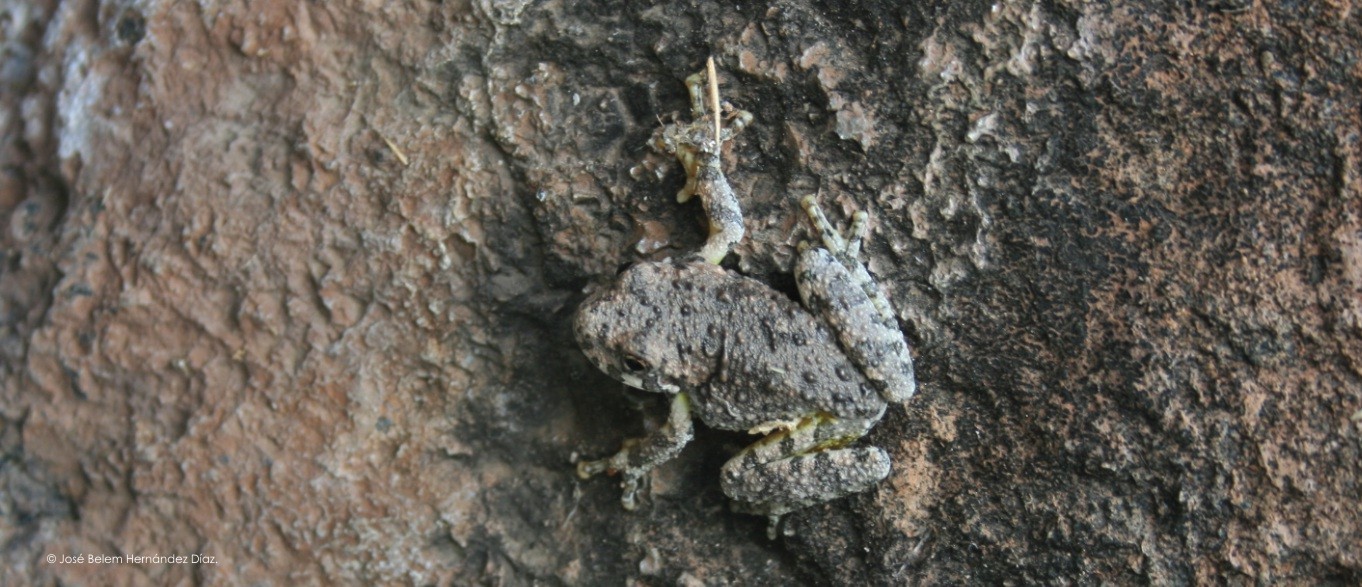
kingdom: Animalia
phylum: Chordata
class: Amphibia
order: Anura
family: Hylidae
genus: Dryophytes
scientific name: Dryophytes arenicolor
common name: Canyon treefrog
